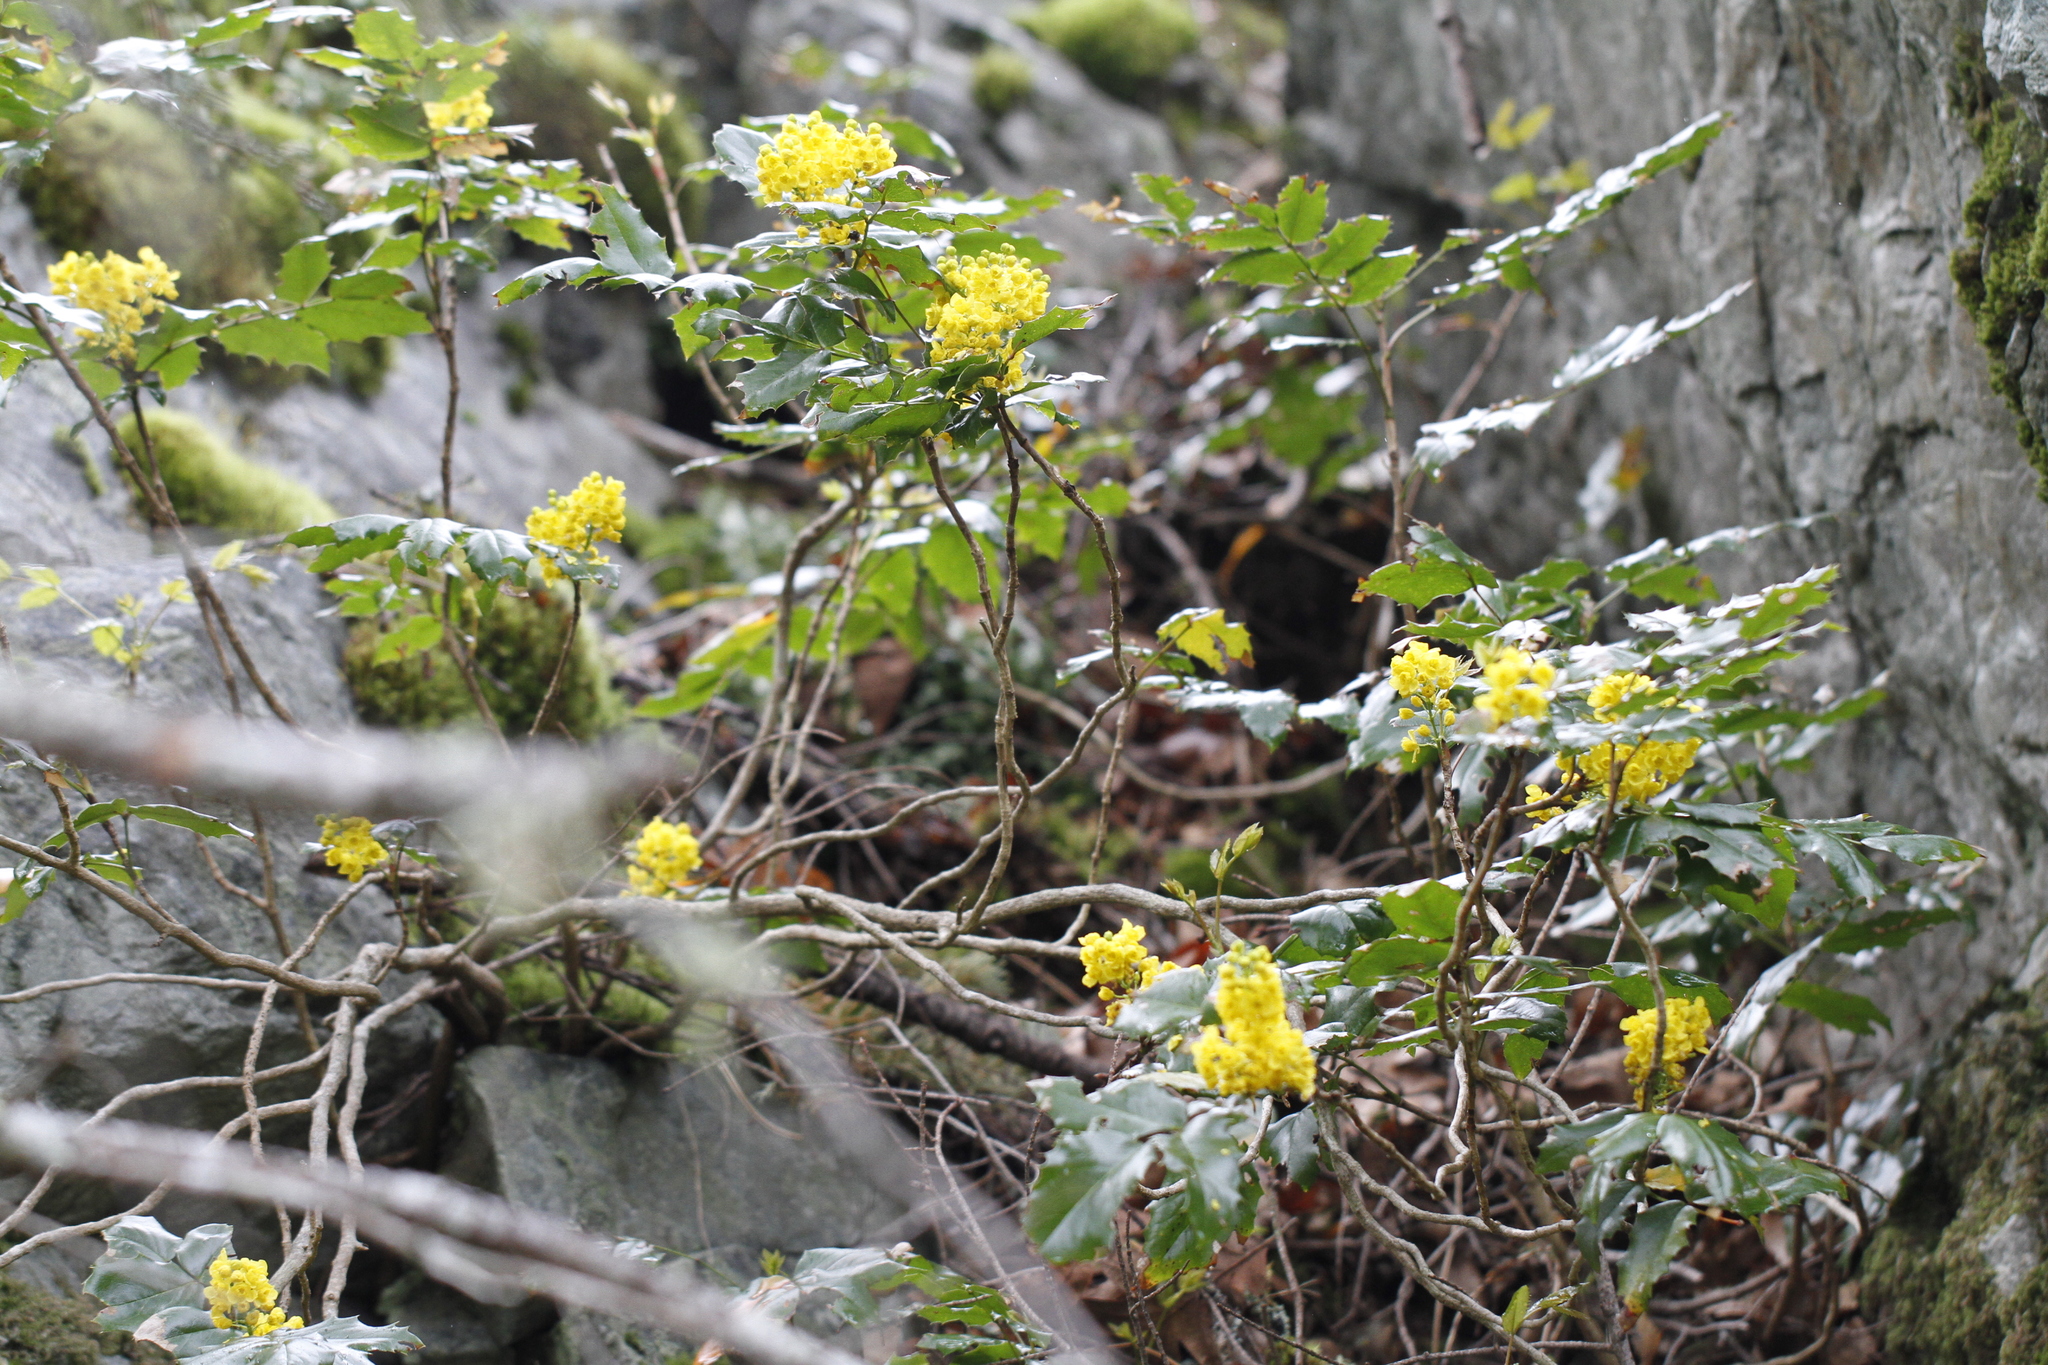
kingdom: Plantae
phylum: Tracheophyta
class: Magnoliopsida
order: Ranunculales
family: Berberidaceae
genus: Mahonia
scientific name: Mahonia aquifolium
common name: Oregon-grape
